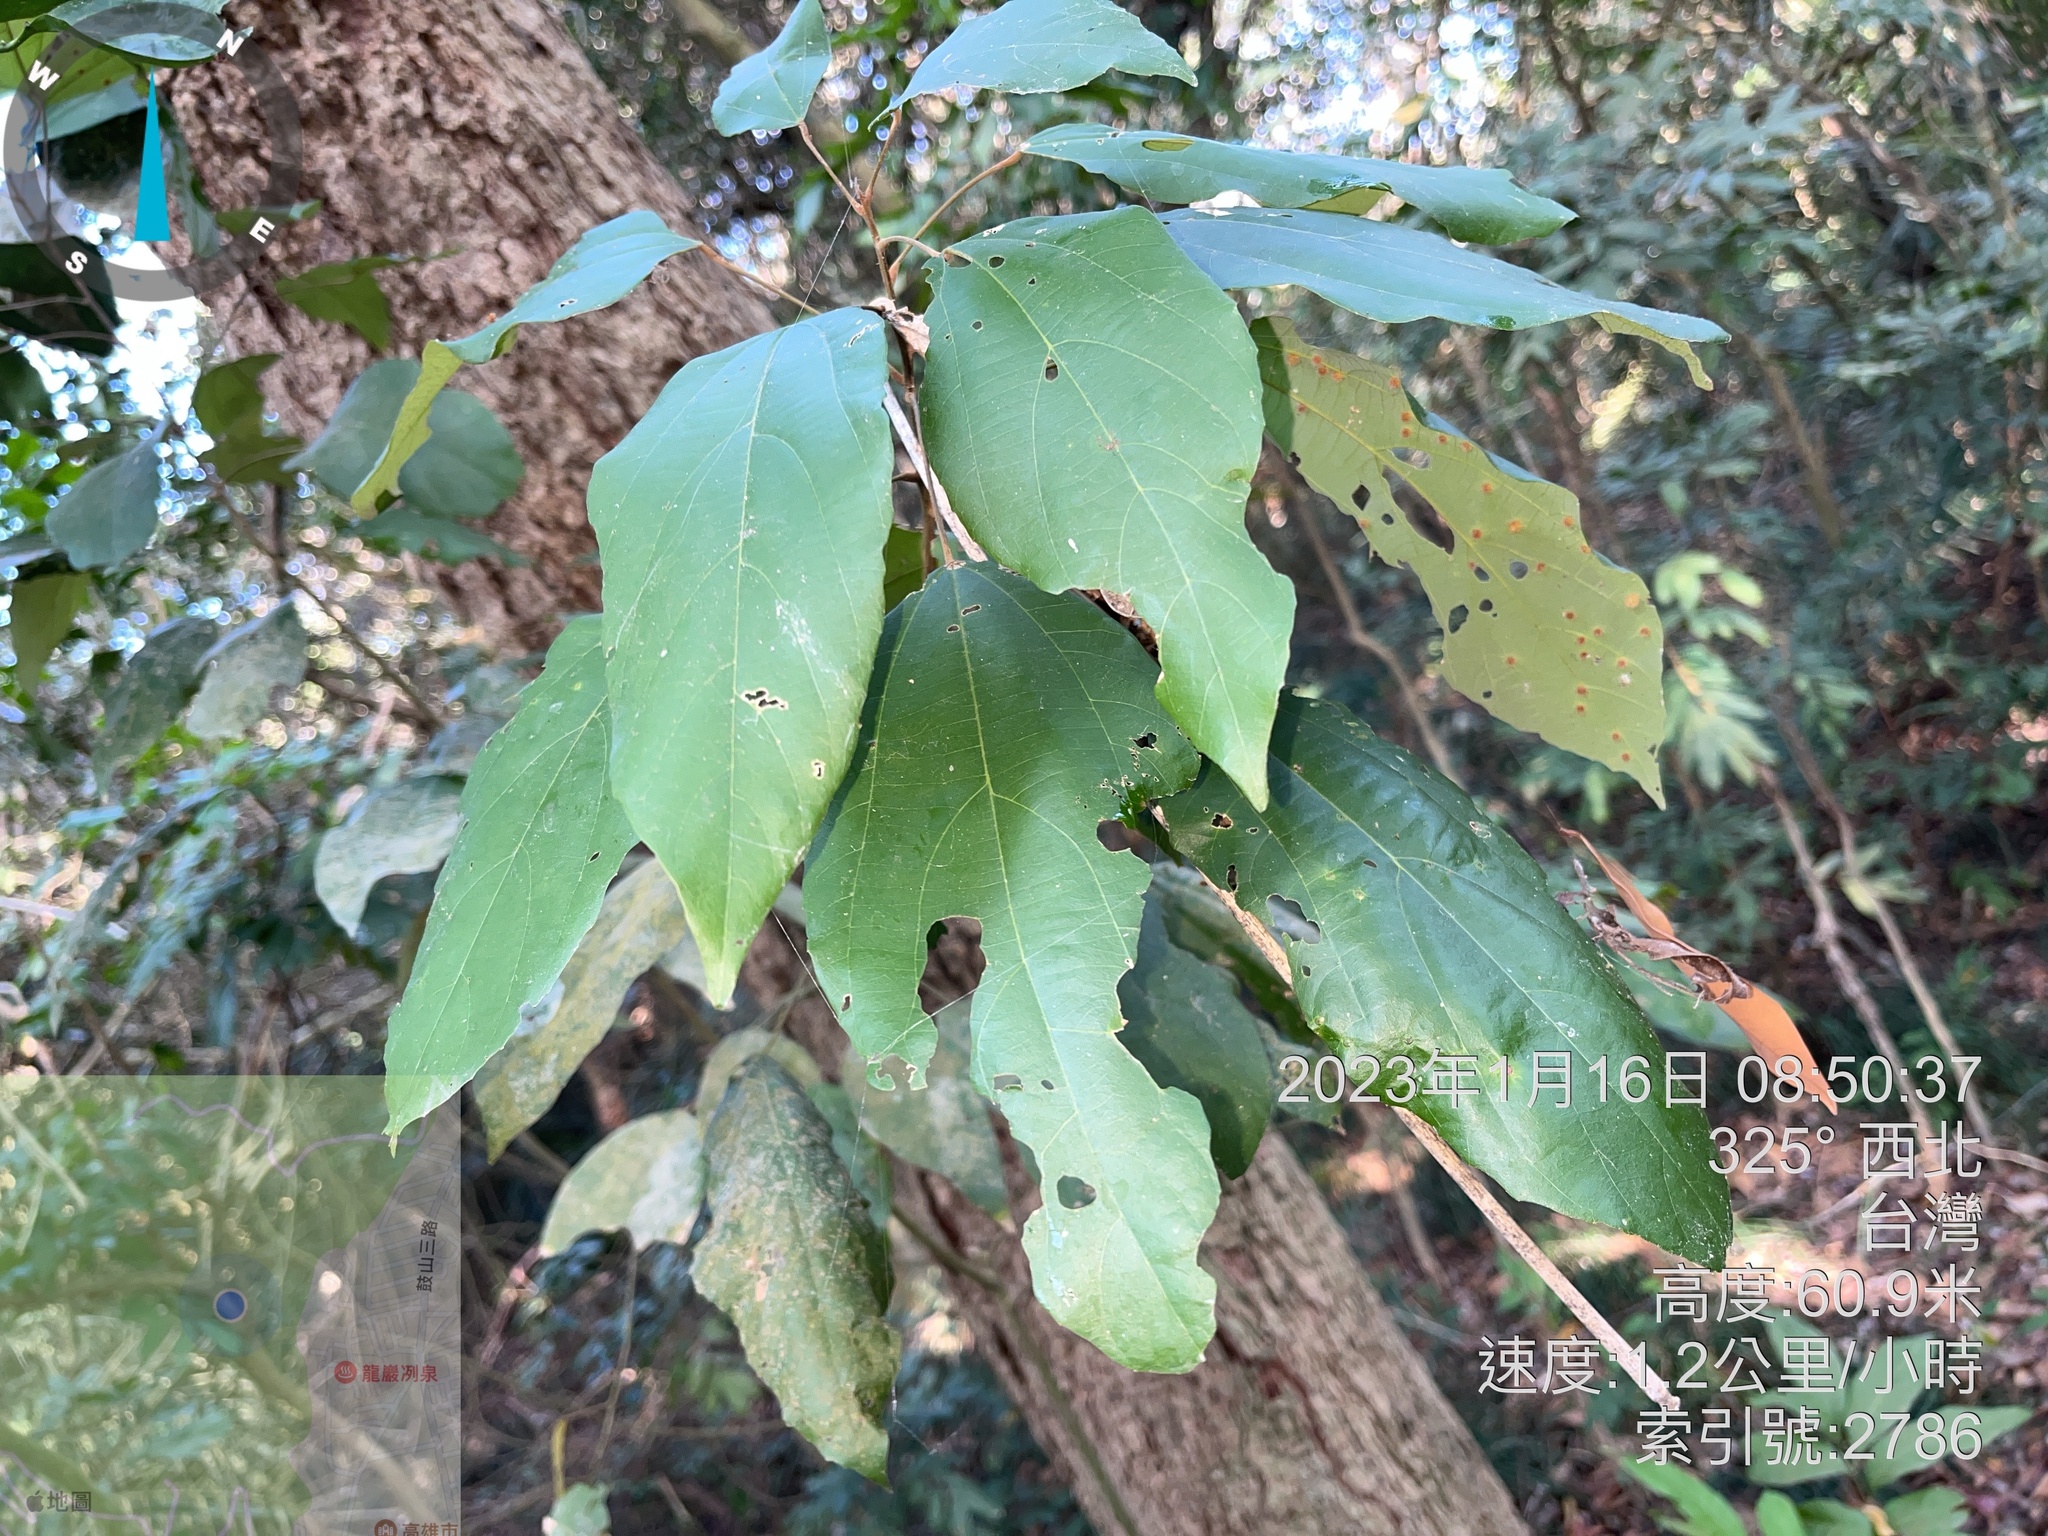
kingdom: Plantae
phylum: Tracheophyta
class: Magnoliopsida
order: Malpighiales
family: Euphorbiaceae
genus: Mallotus
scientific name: Mallotus philippensis
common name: Kamala tree
